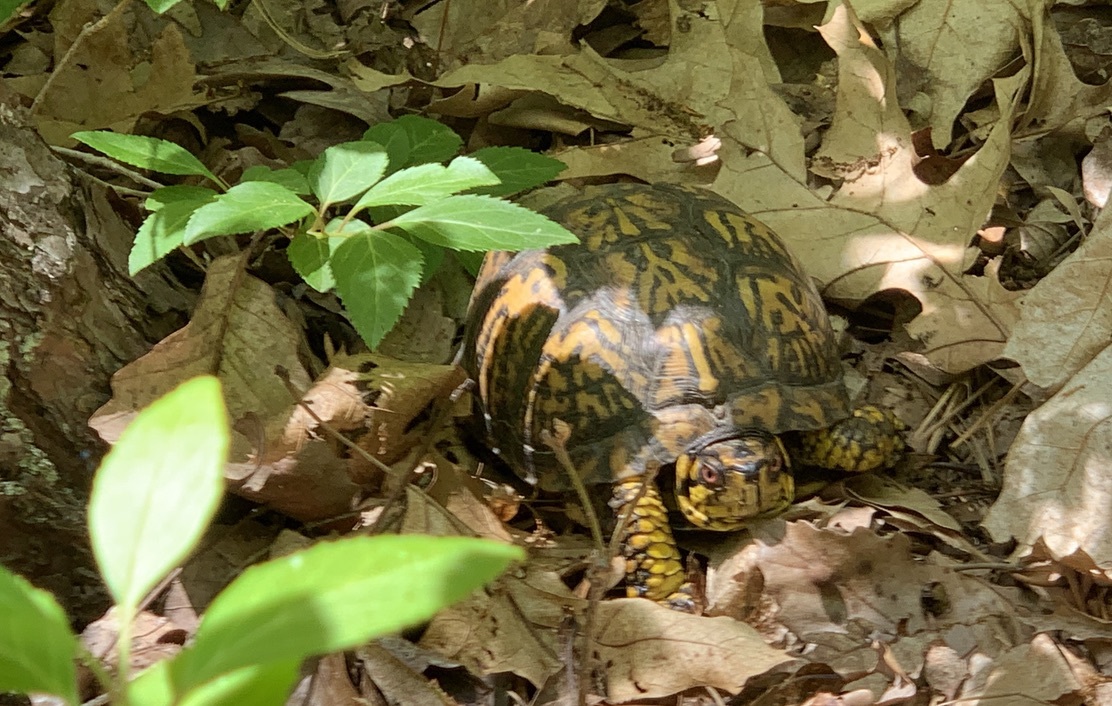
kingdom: Animalia
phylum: Chordata
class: Testudines
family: Emydidae
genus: Terrapene
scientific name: Terrapene carolina
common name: Common box turtle
